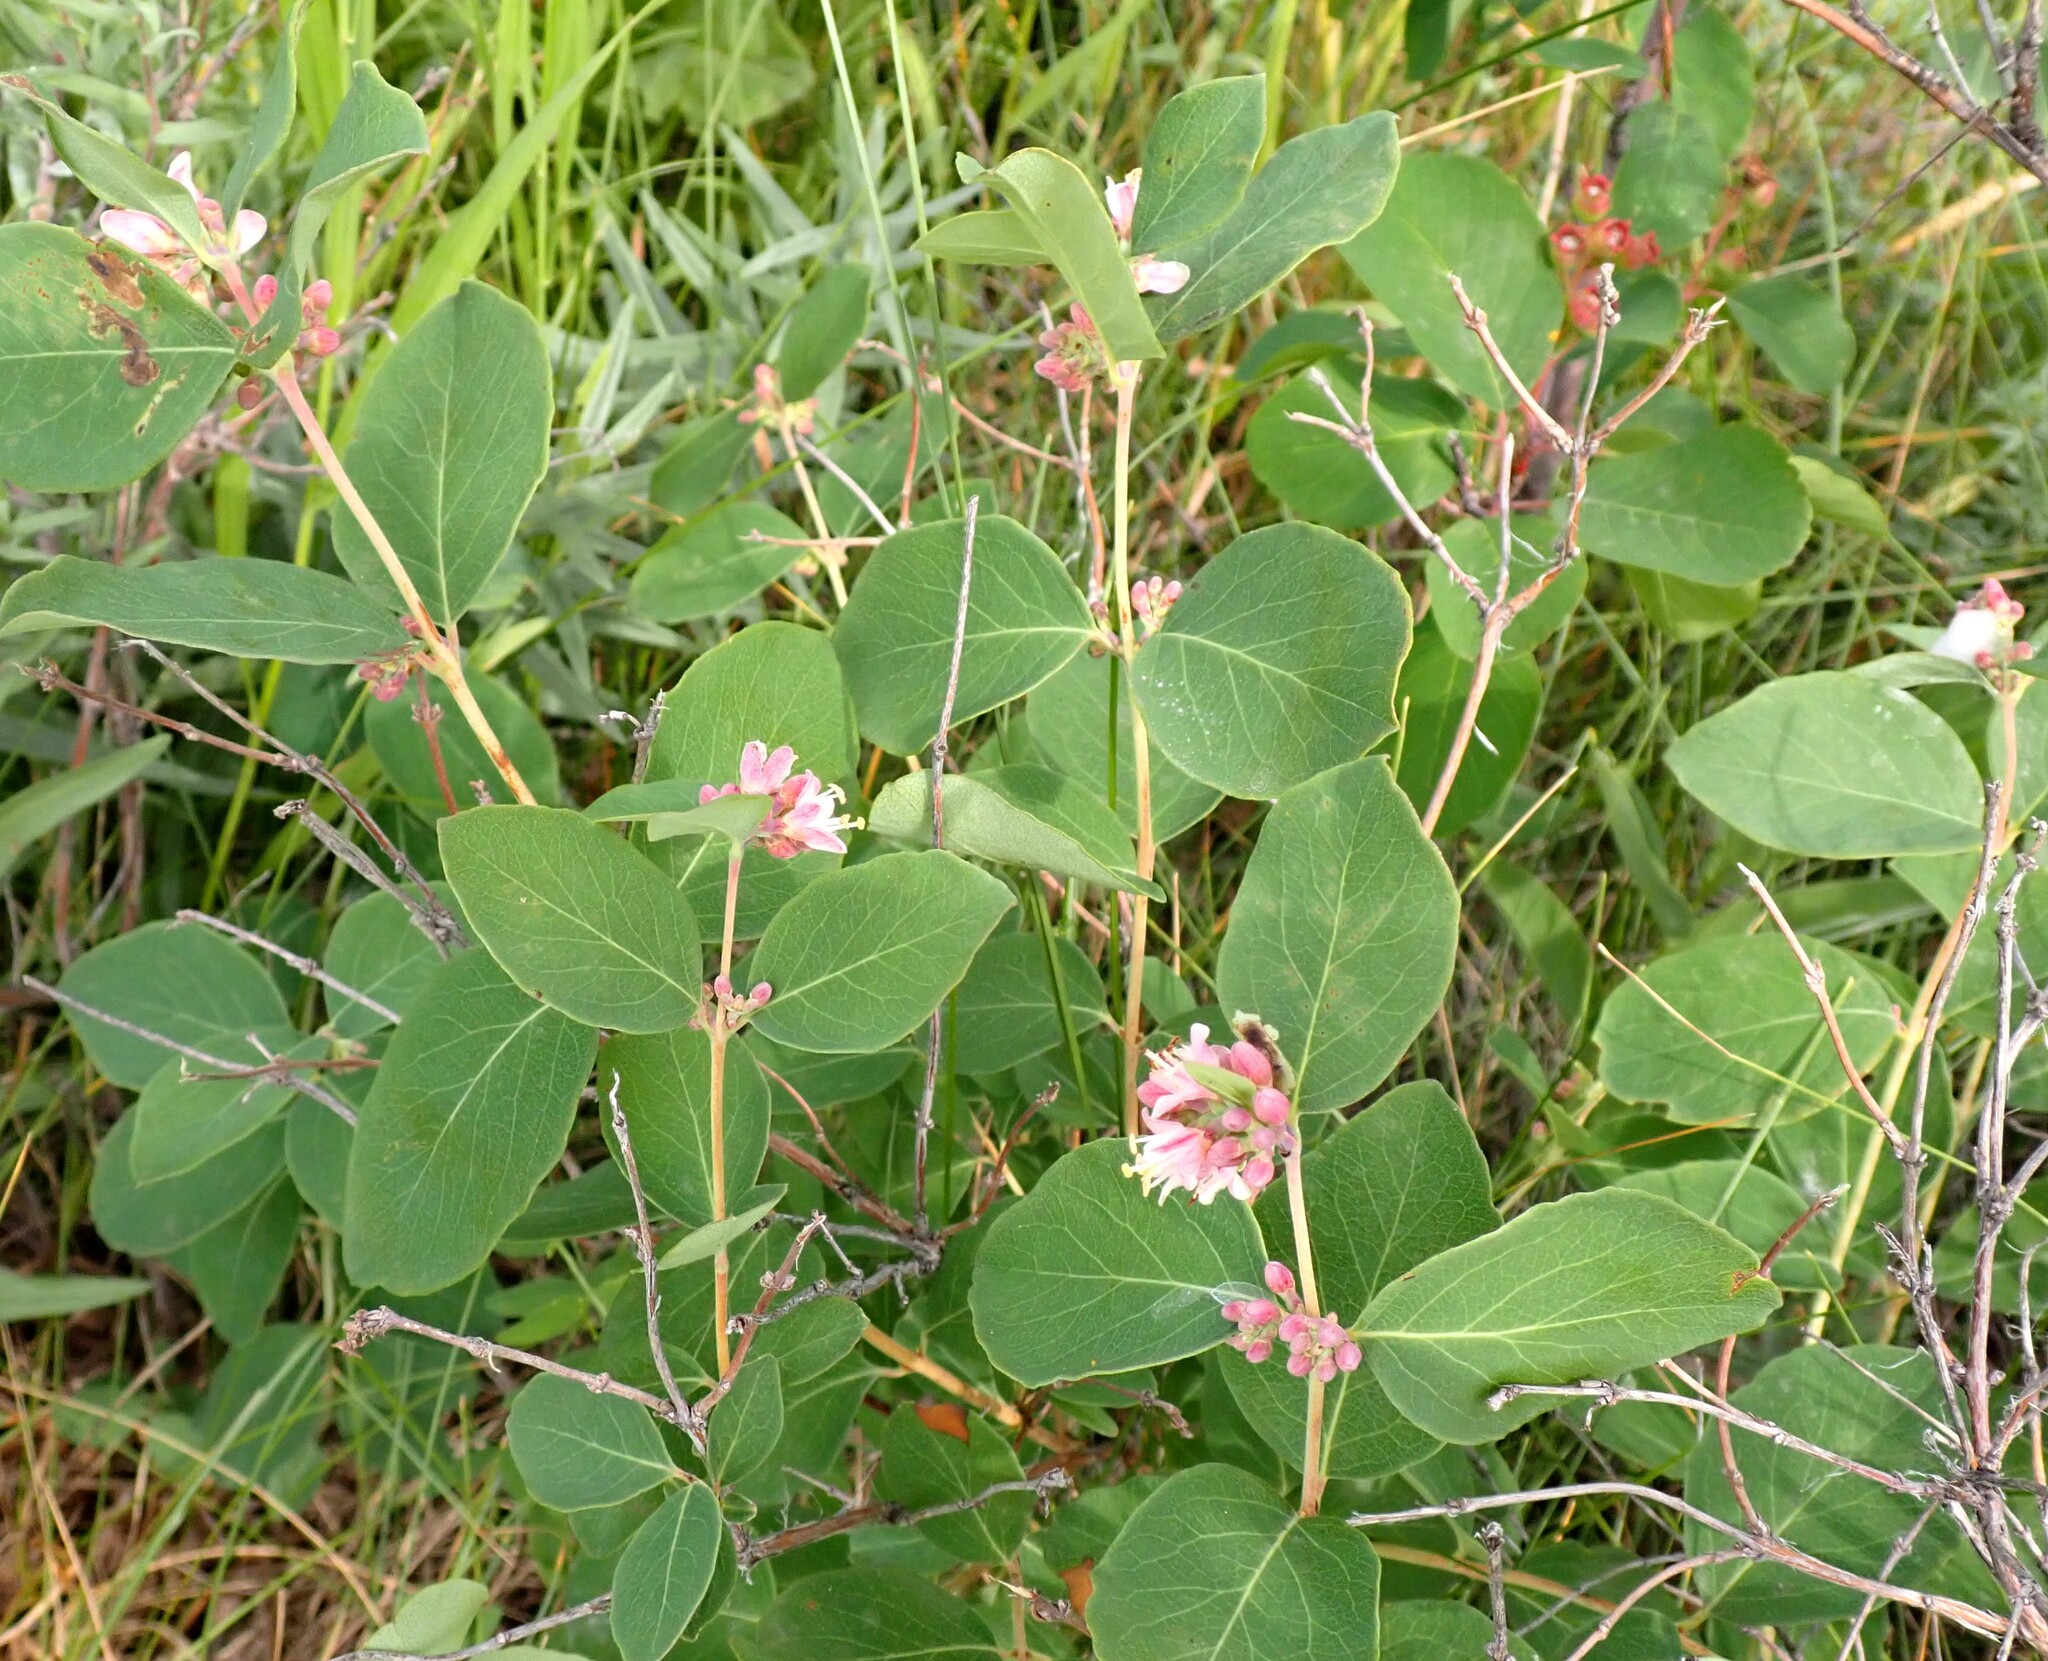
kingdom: Plantae
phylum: Tracheophyta
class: Magnoliopsida
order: Dipsacales
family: Caprifoliaceae
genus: Symphoricarpos
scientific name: Symphoricarpos occidentalis
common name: Wolfberry
